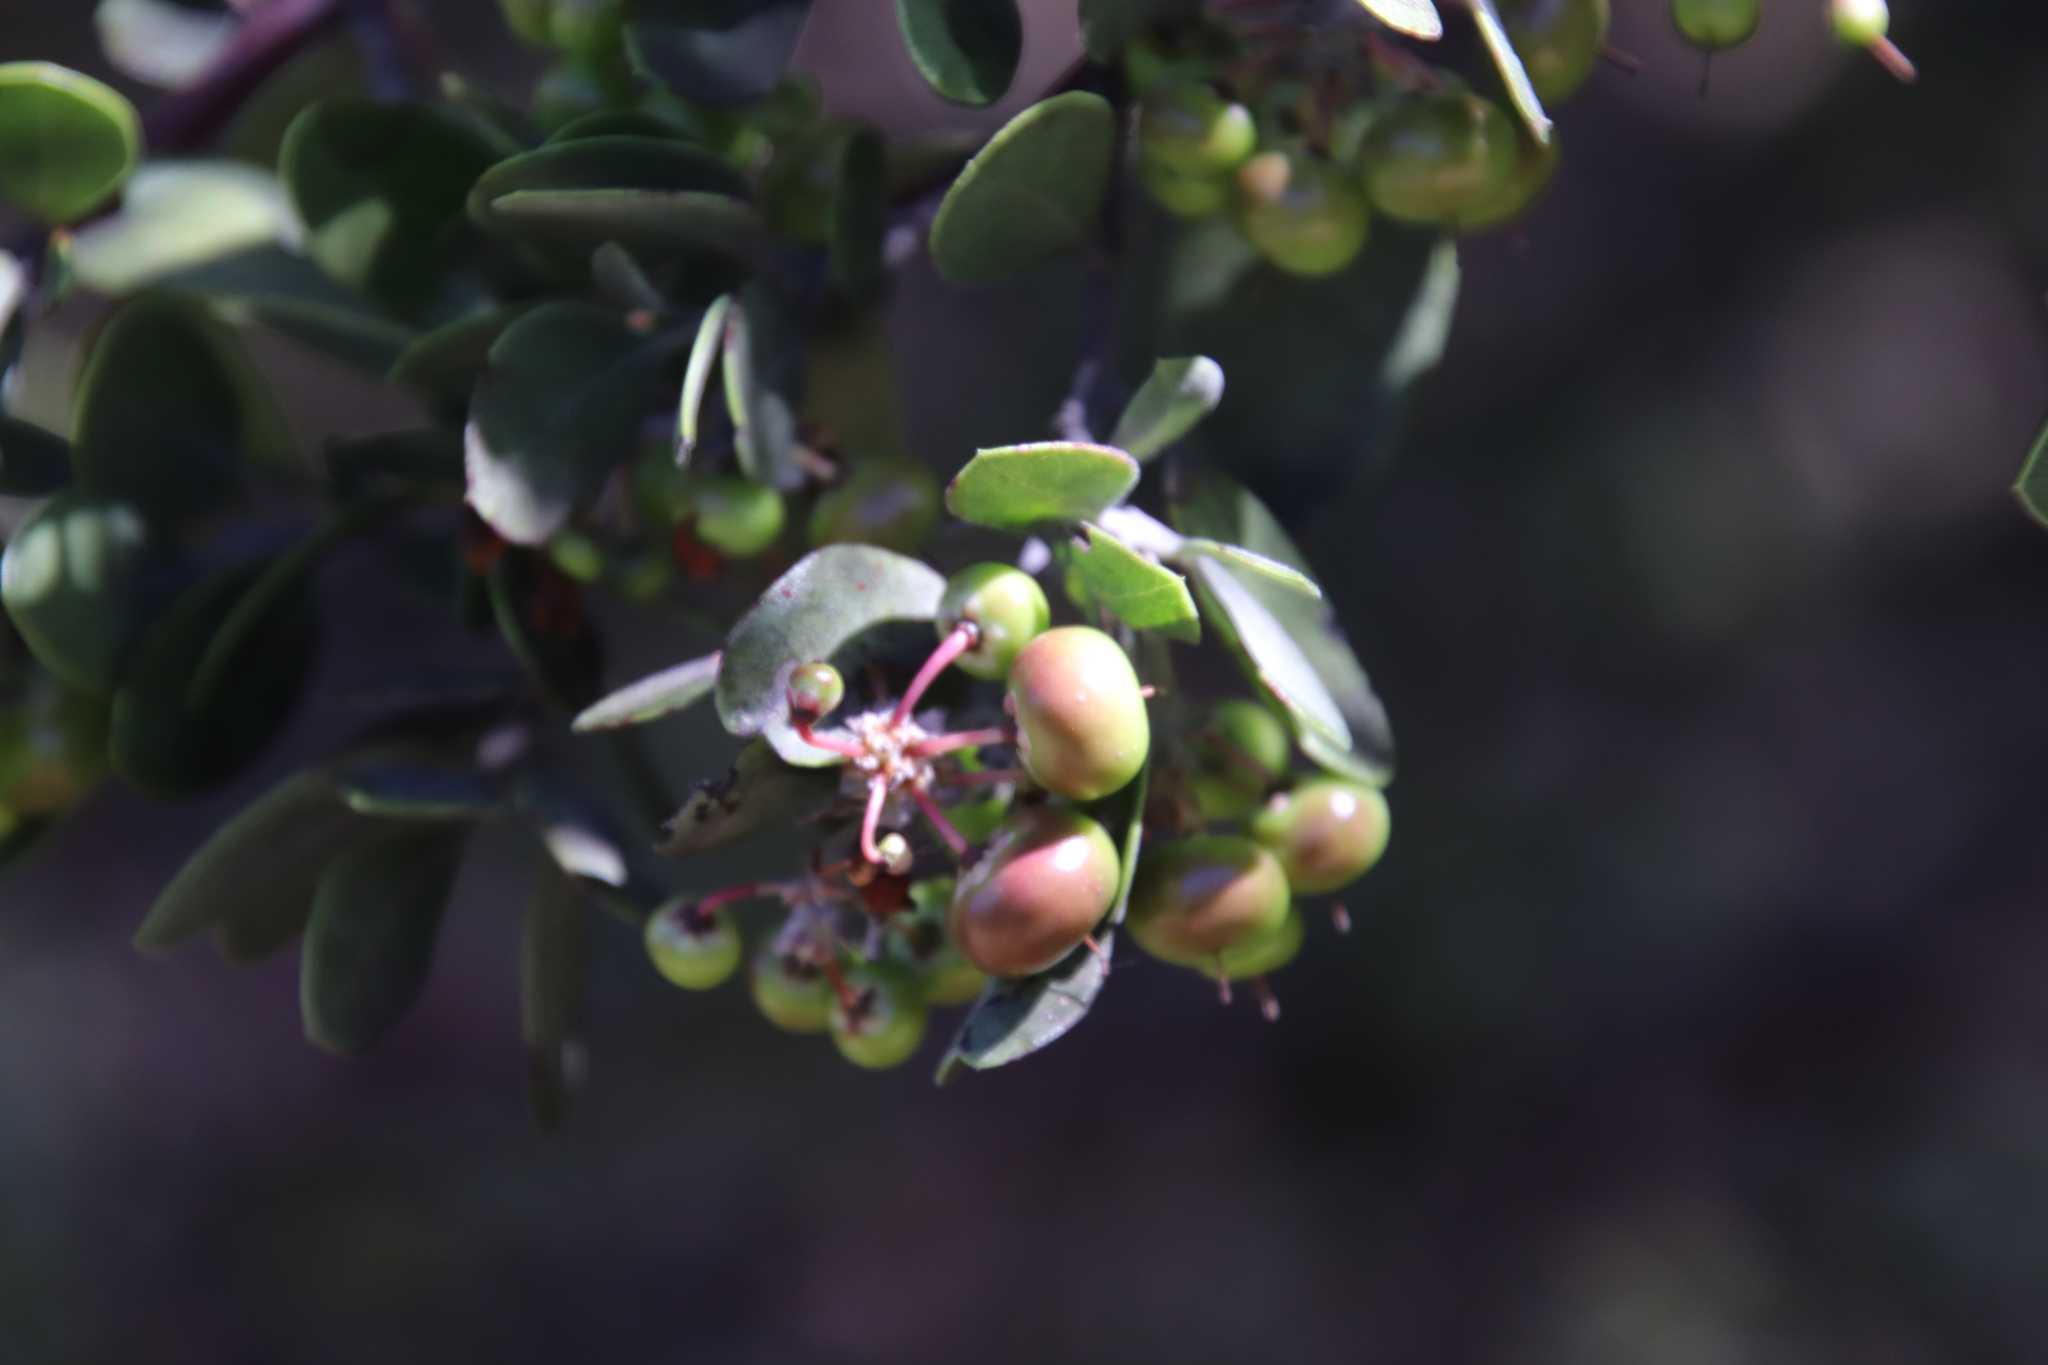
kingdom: Plantae
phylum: Tracheophyta
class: Magnoliopsida
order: Ericales
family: Ericaceae
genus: Arctostaphylos
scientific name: Arctostaphylos pungens
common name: Mexican manzanita
